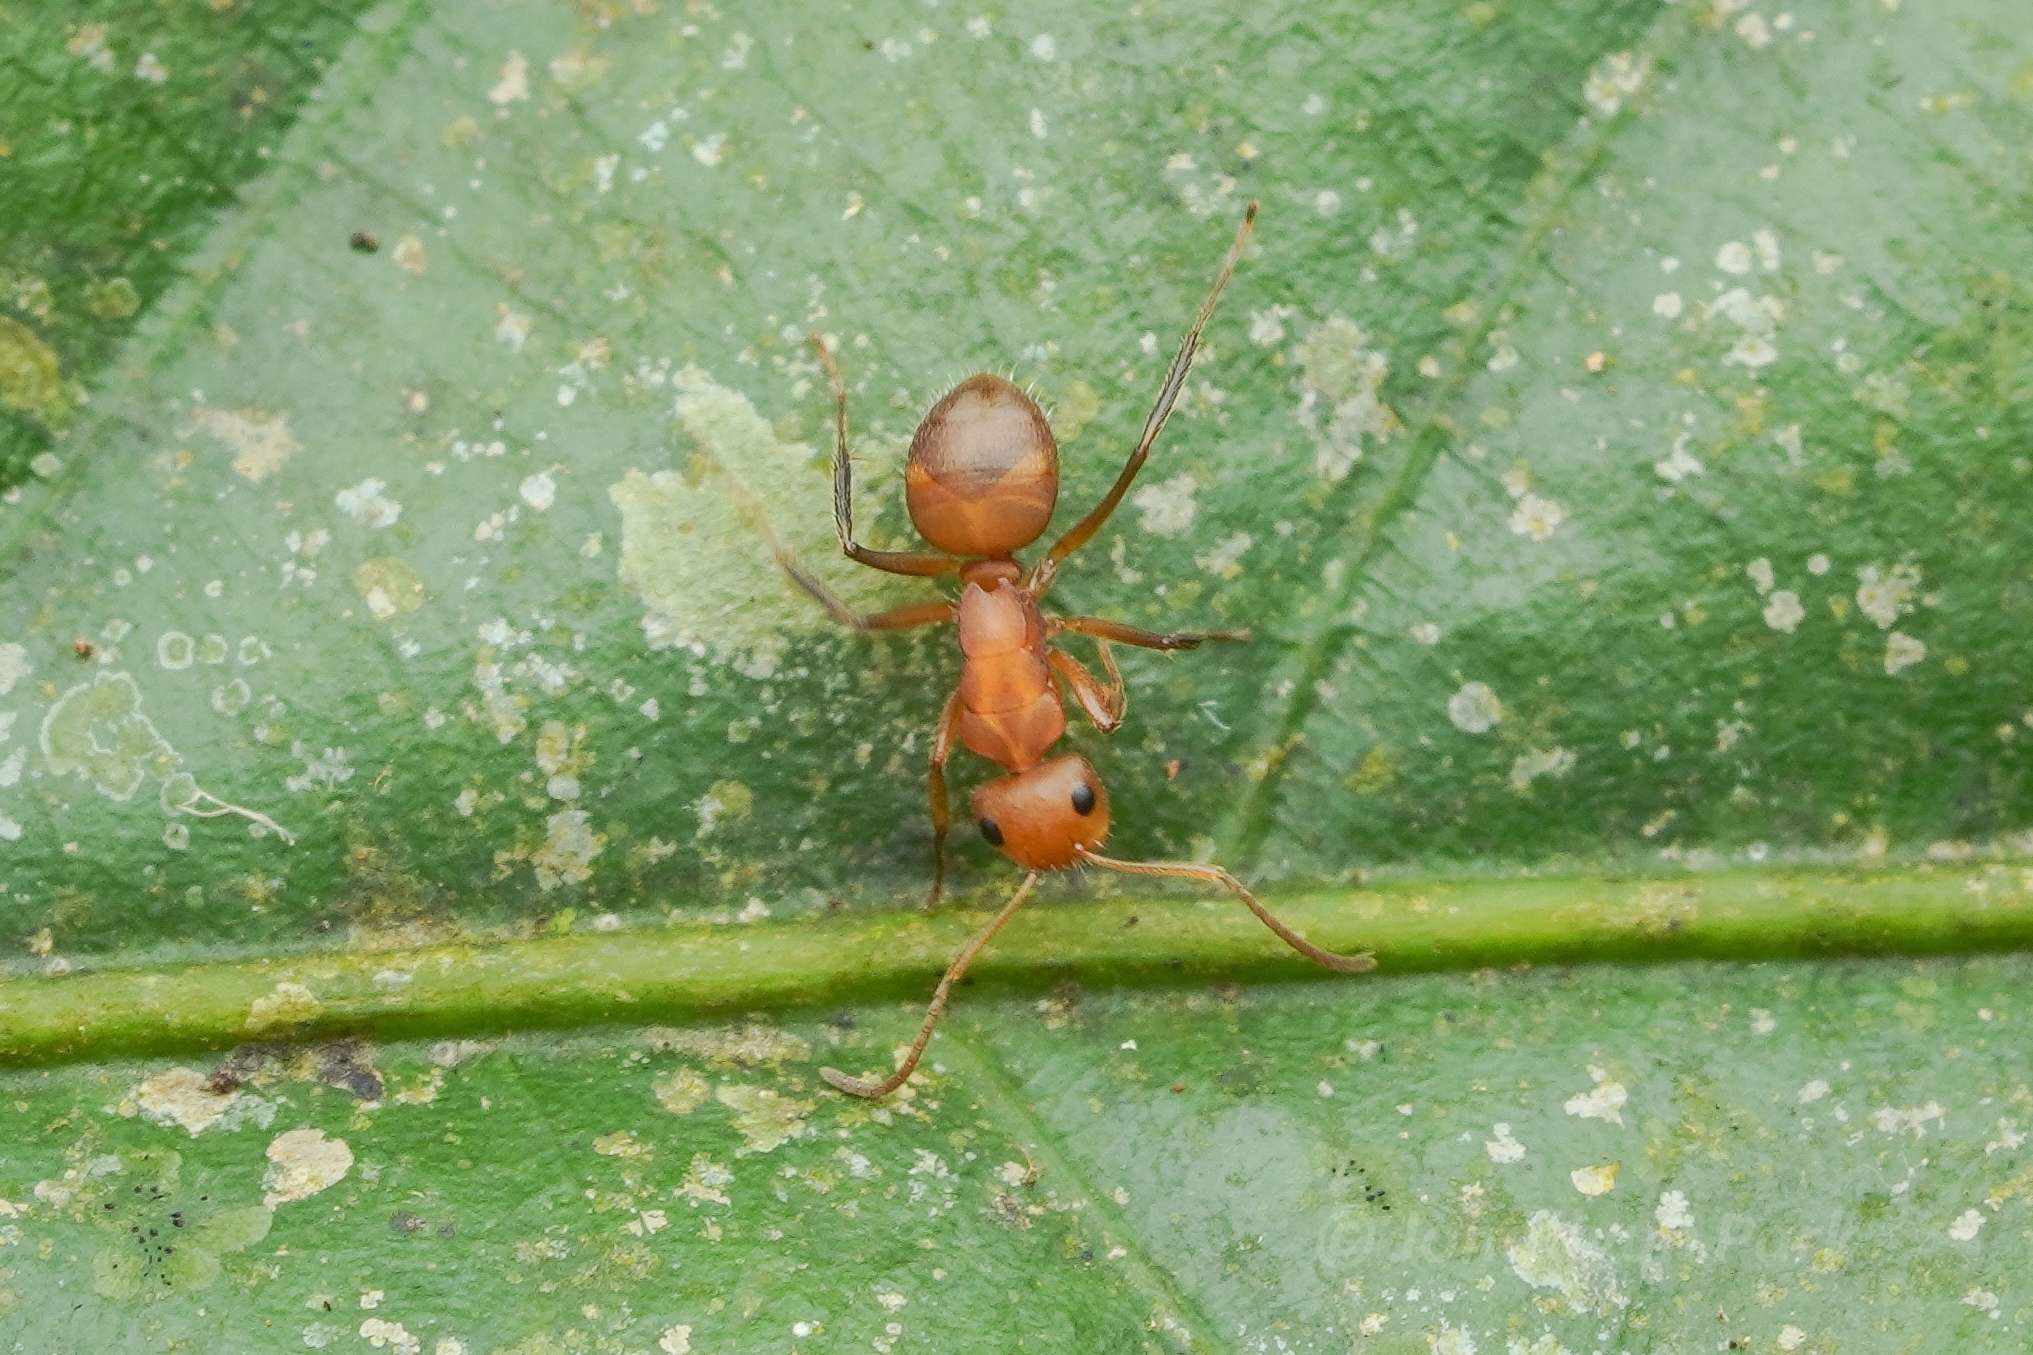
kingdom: Animalia
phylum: Arthropoda
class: Insecta
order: Hymenoptera
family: Formicidae
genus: Camponotus
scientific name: Camponotus latangulus
